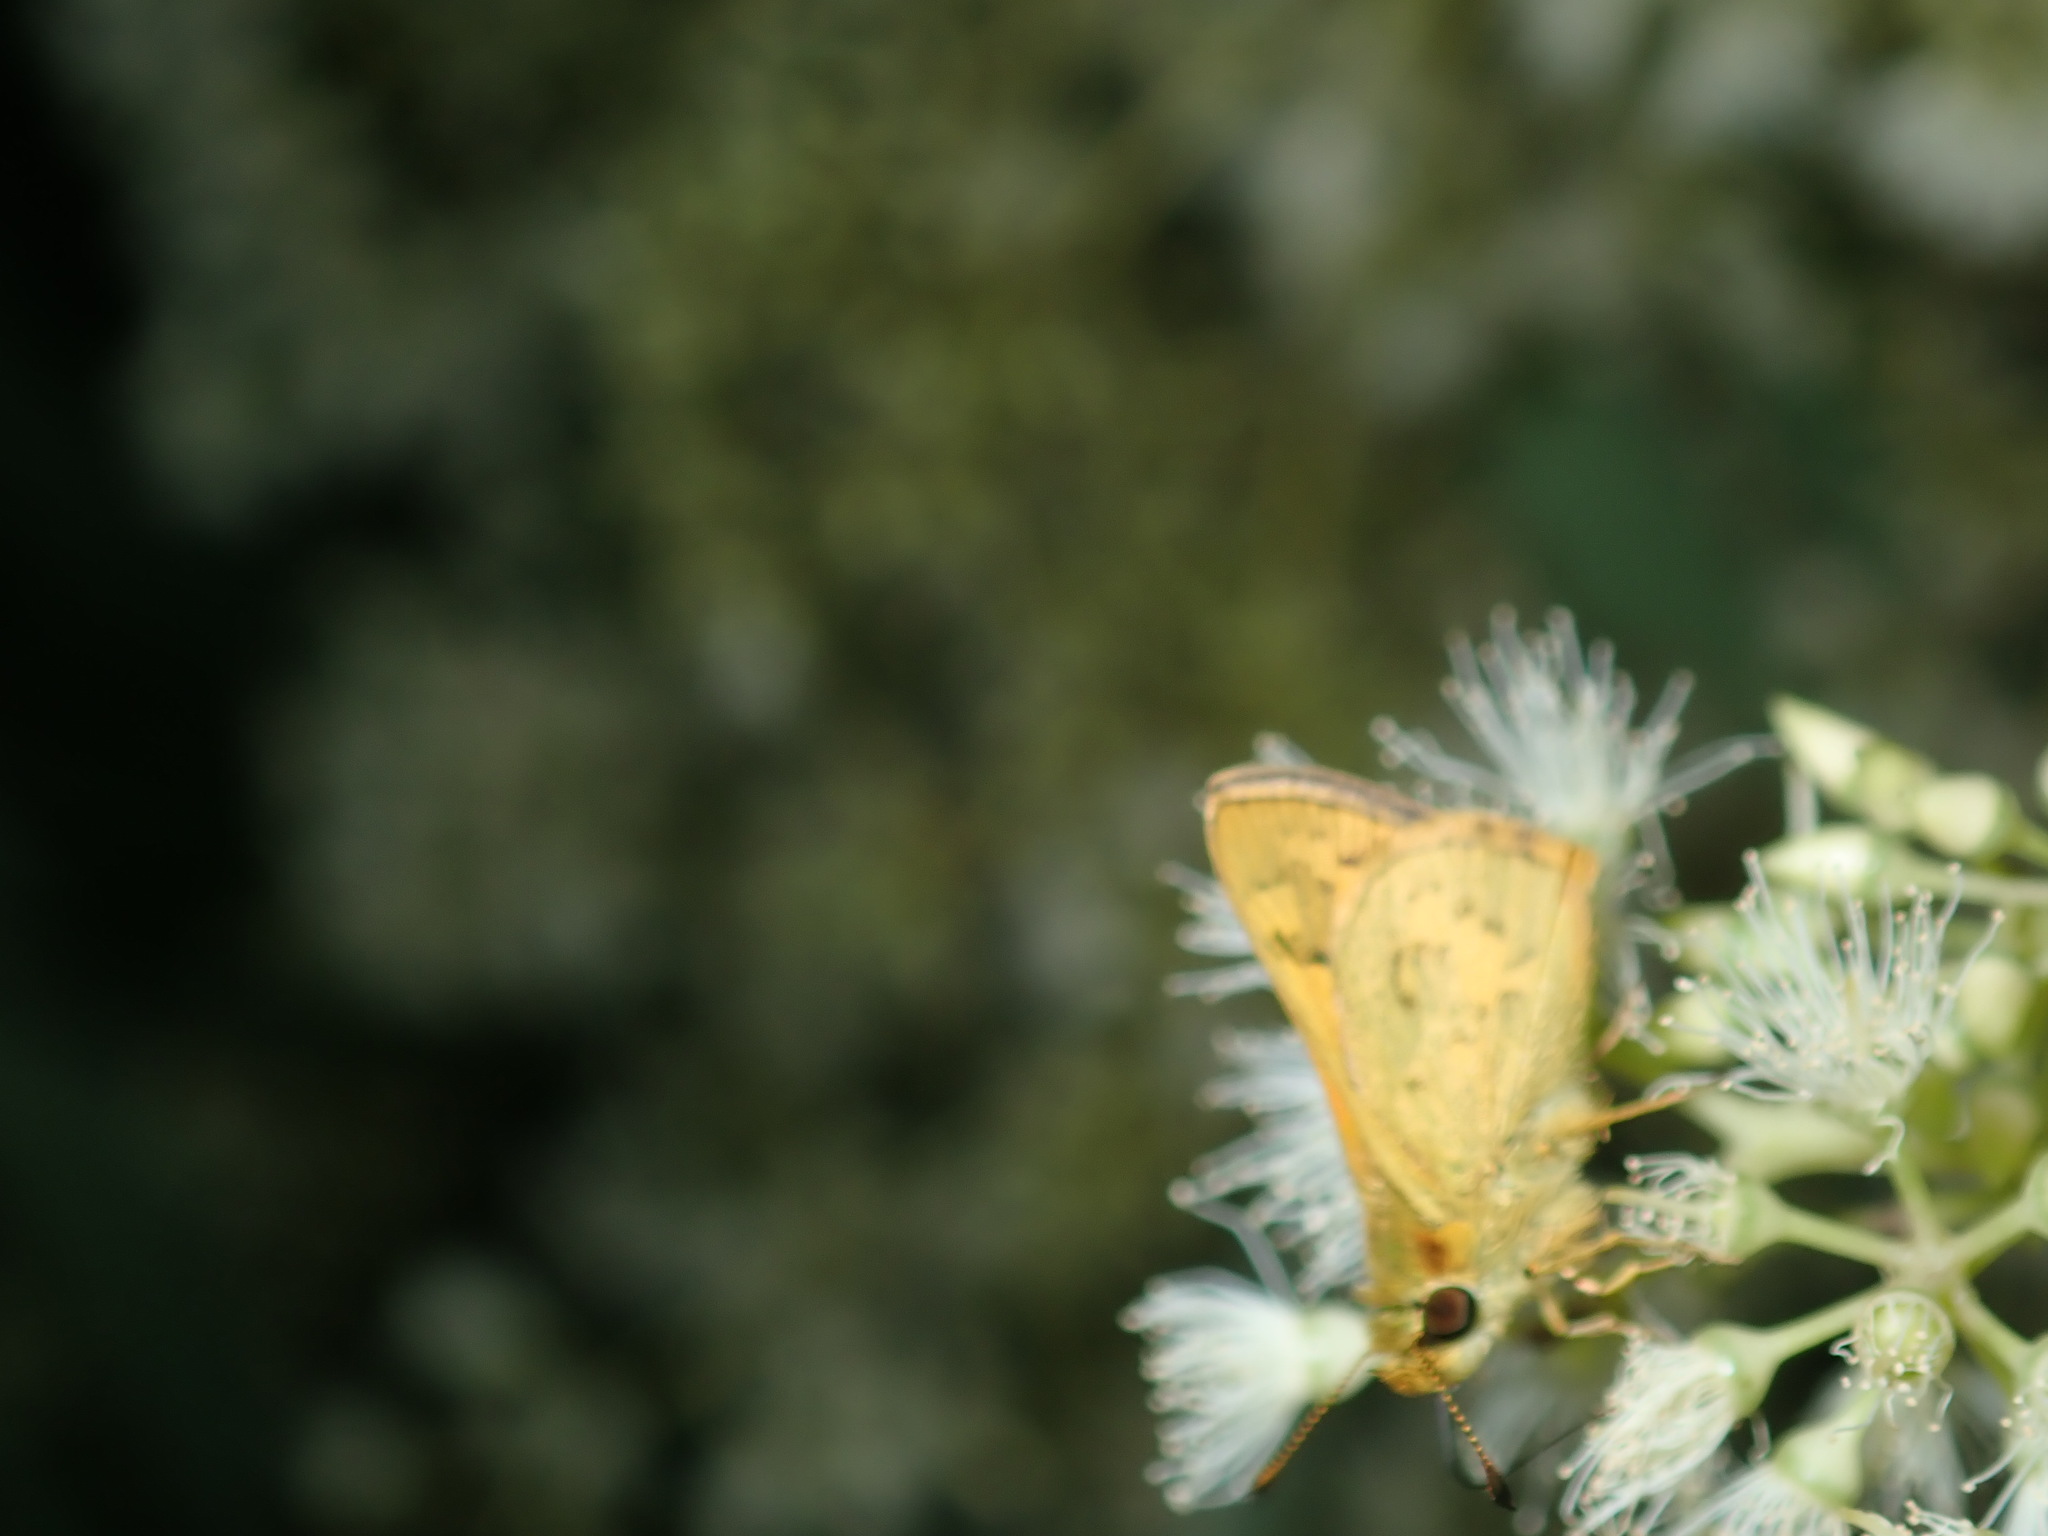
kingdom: Animalia
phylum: Arthropoda
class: Insecta
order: Lepidoptera
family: Hesperiidae
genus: Ocybadistes
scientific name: Ocybadistes walkeri
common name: Yellow-banded dart
